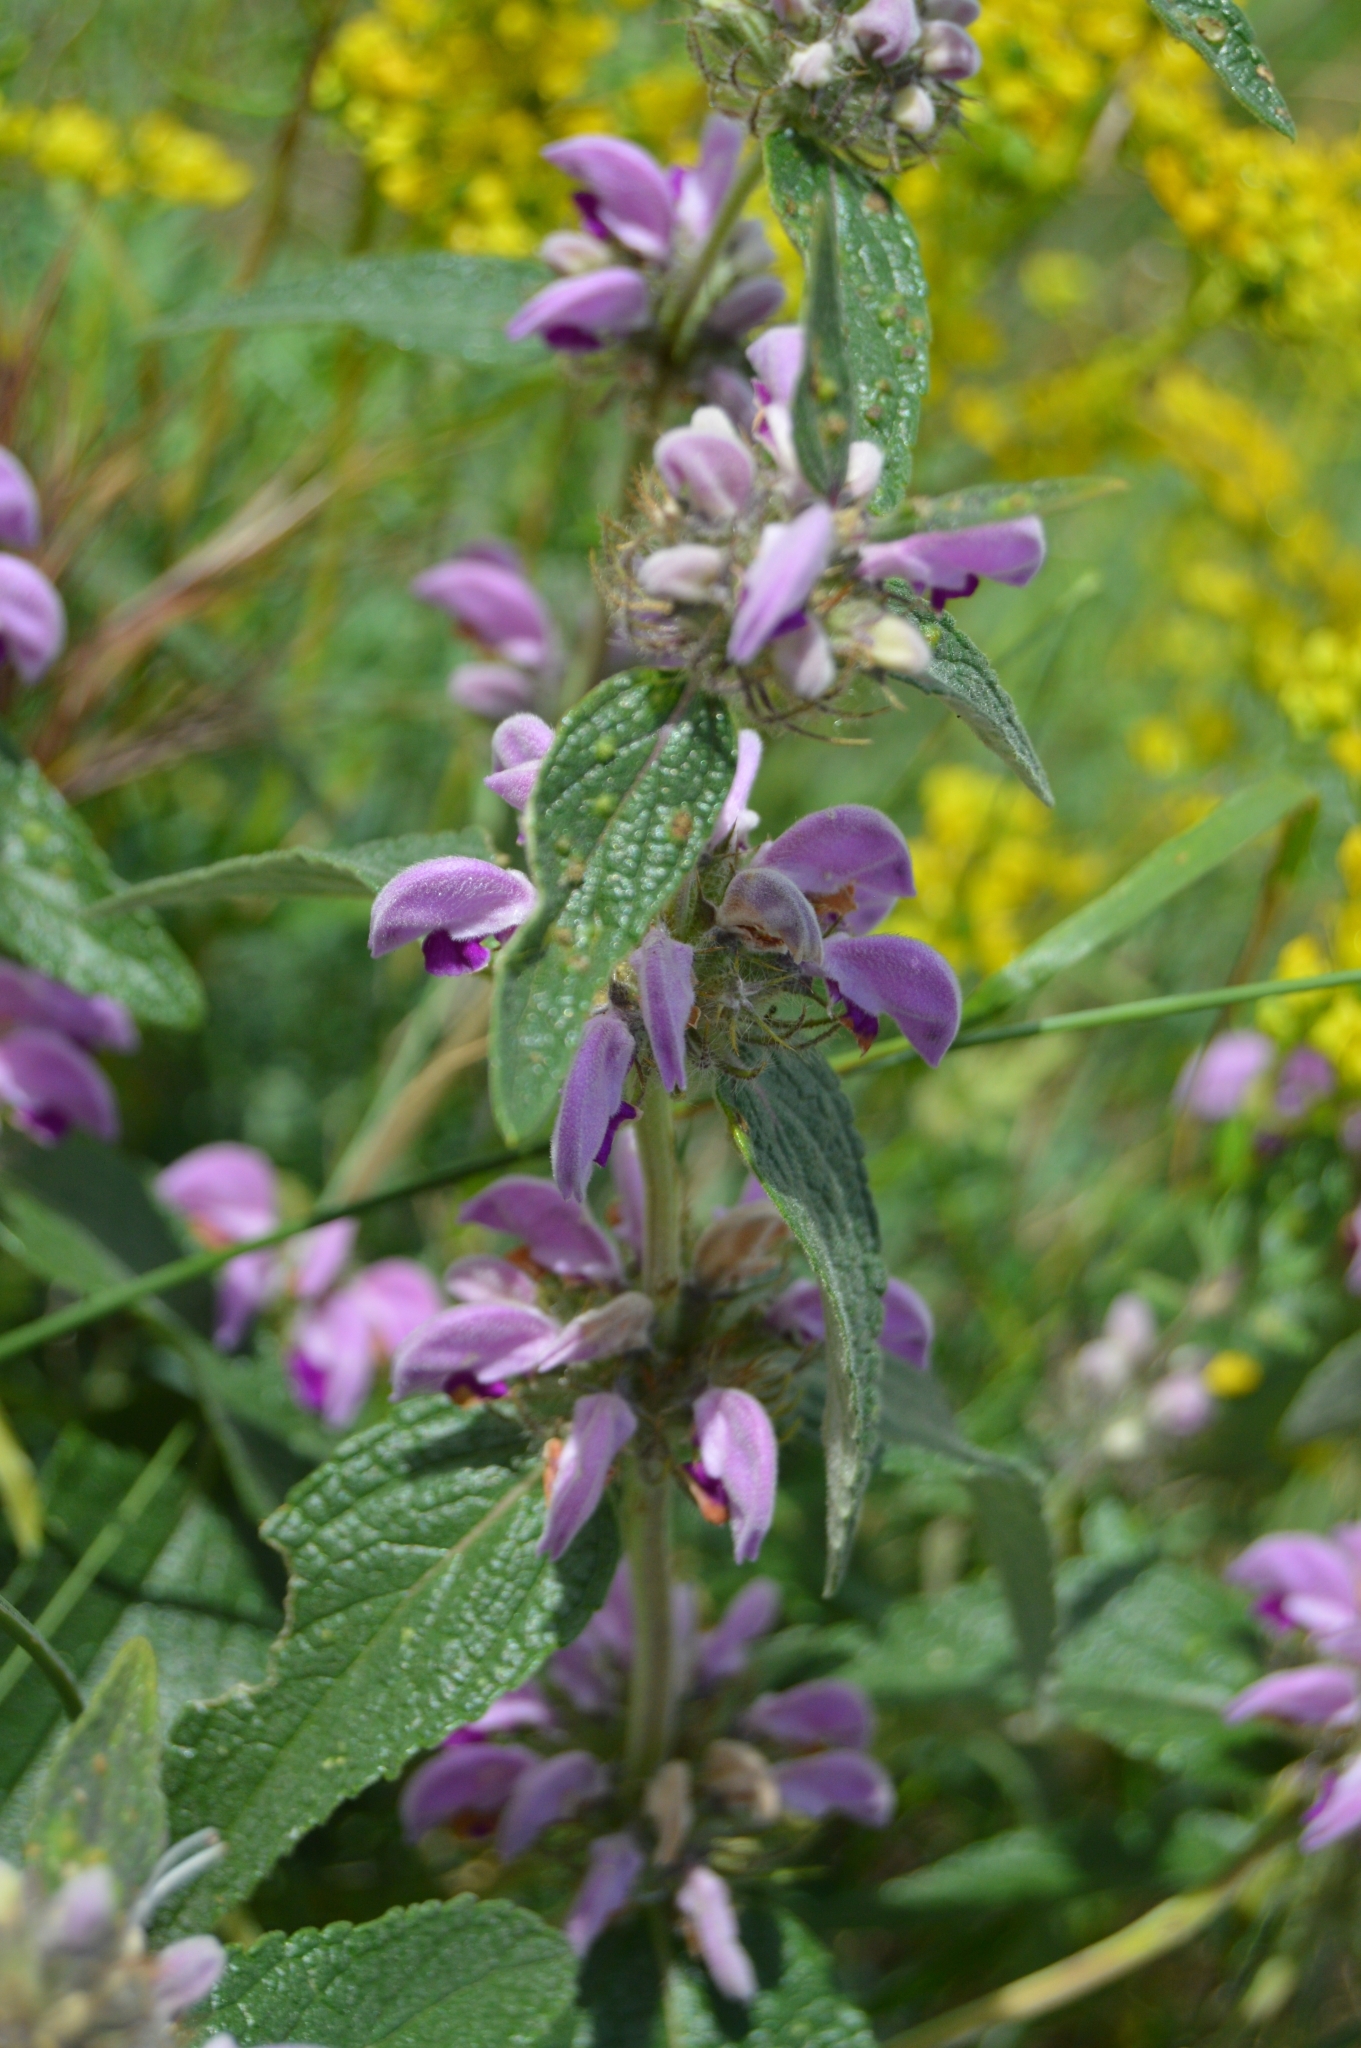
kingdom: Plantae
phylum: Tracheophyta
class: Magnoliopsida
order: Lamiales
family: Lamiaceae
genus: Phlomis
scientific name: Phlomis herba-venti
